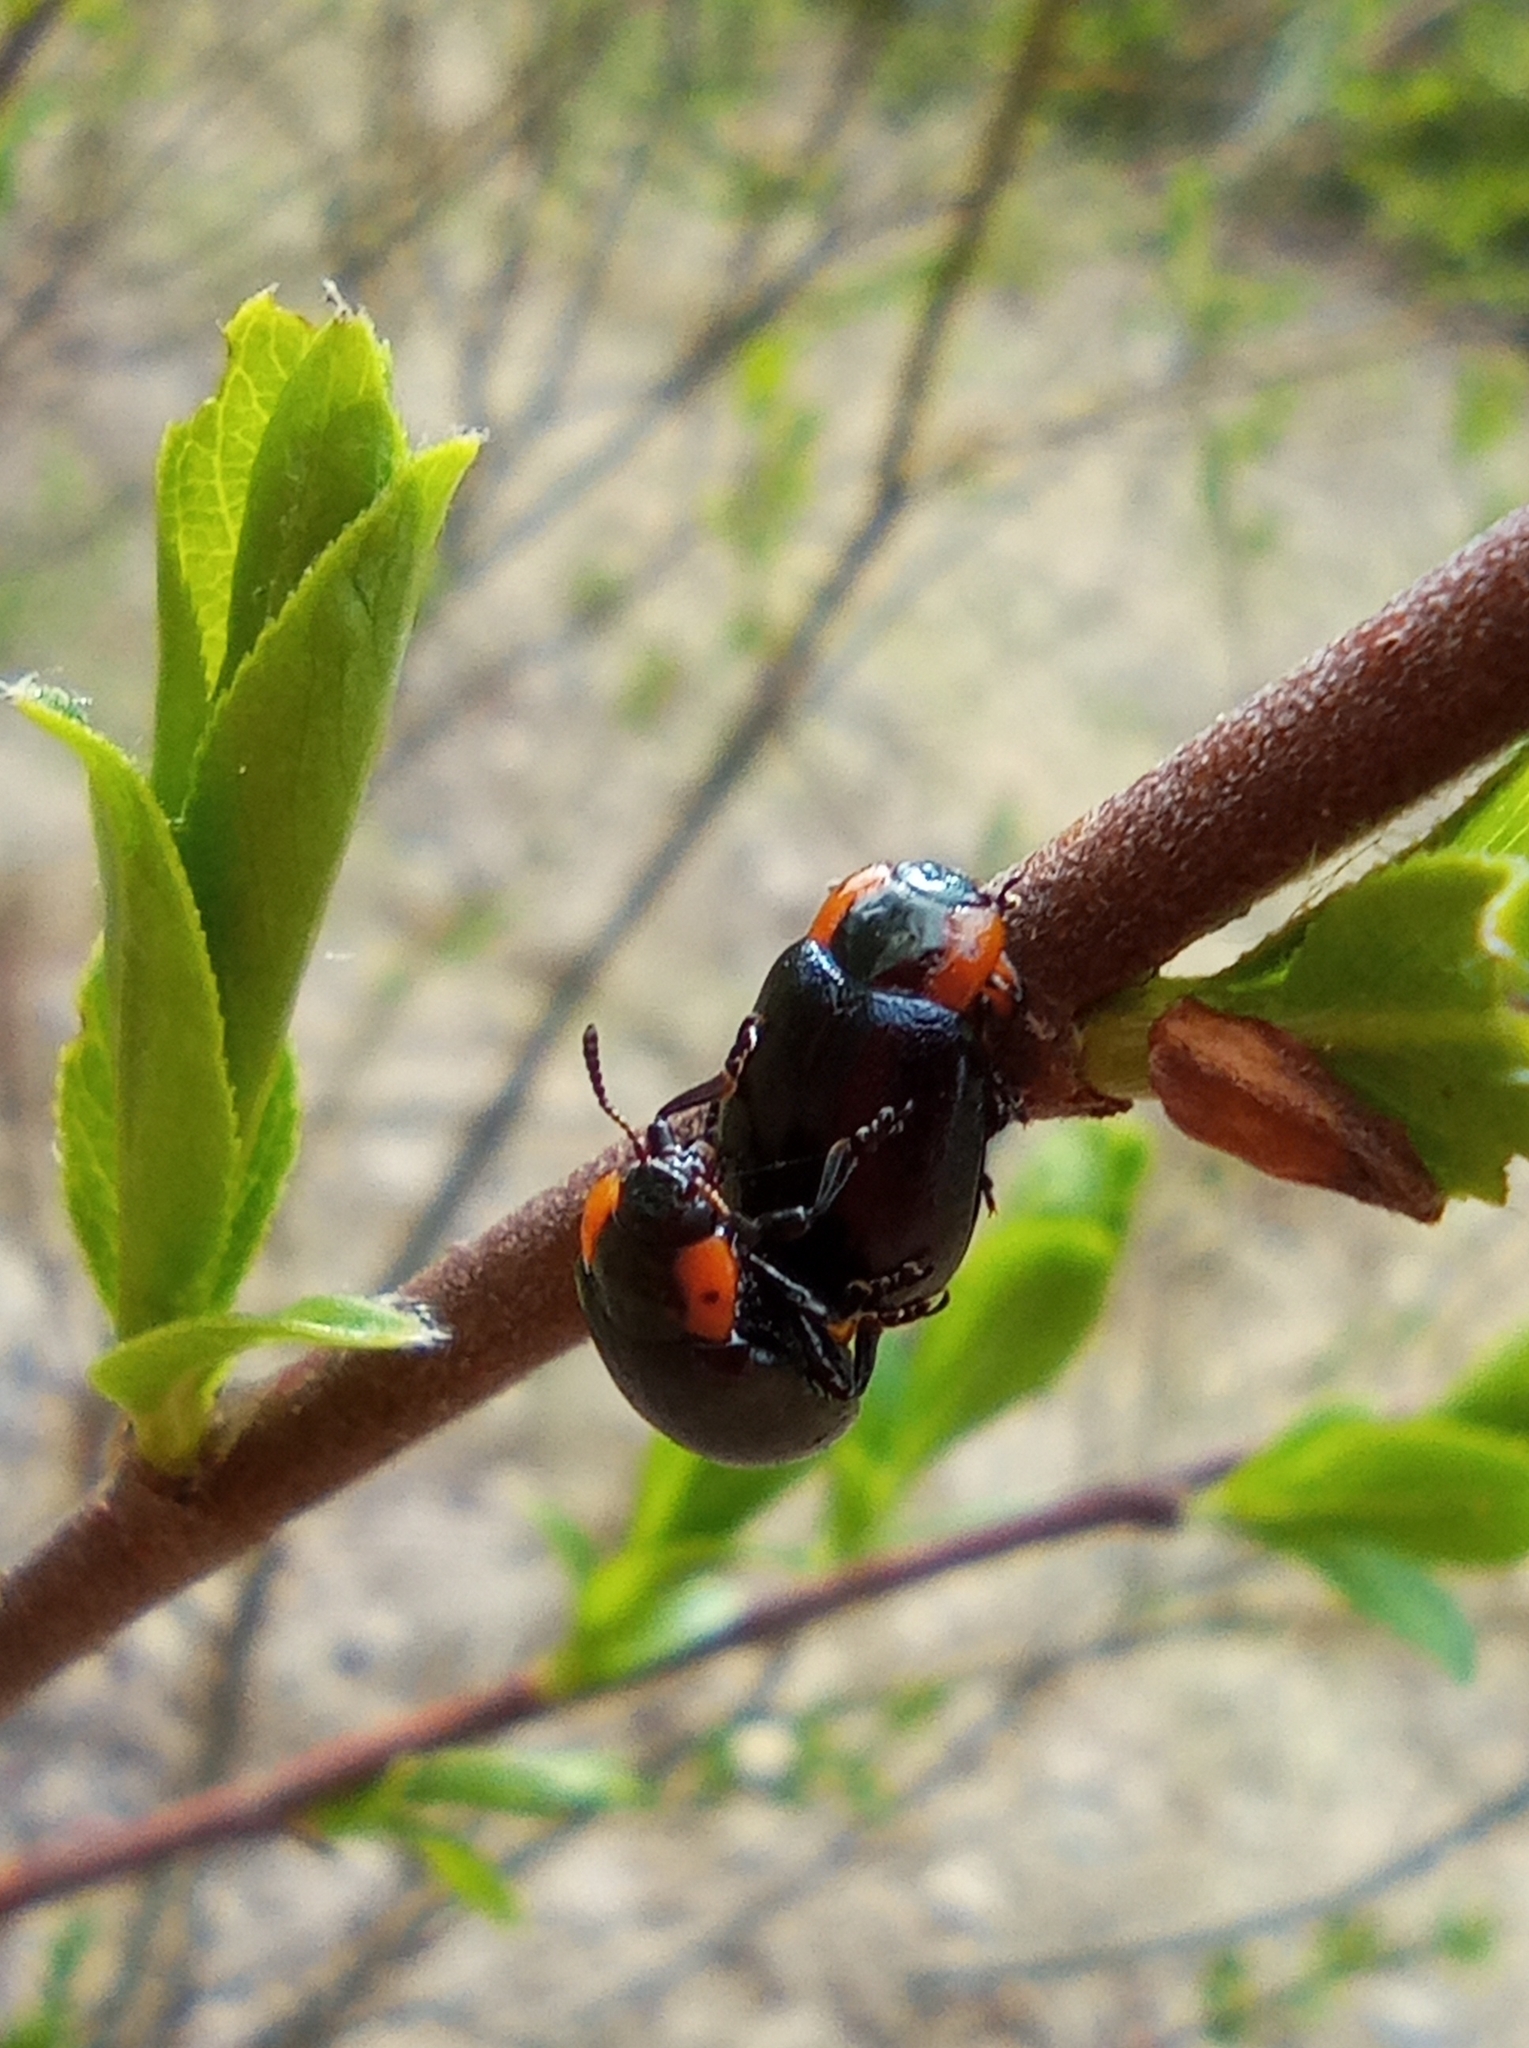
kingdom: Animalia
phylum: Arthropoda
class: Insecta
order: Coleoptera
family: Chrysomelidae
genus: Chrysomela
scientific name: Chrysomela collaris
